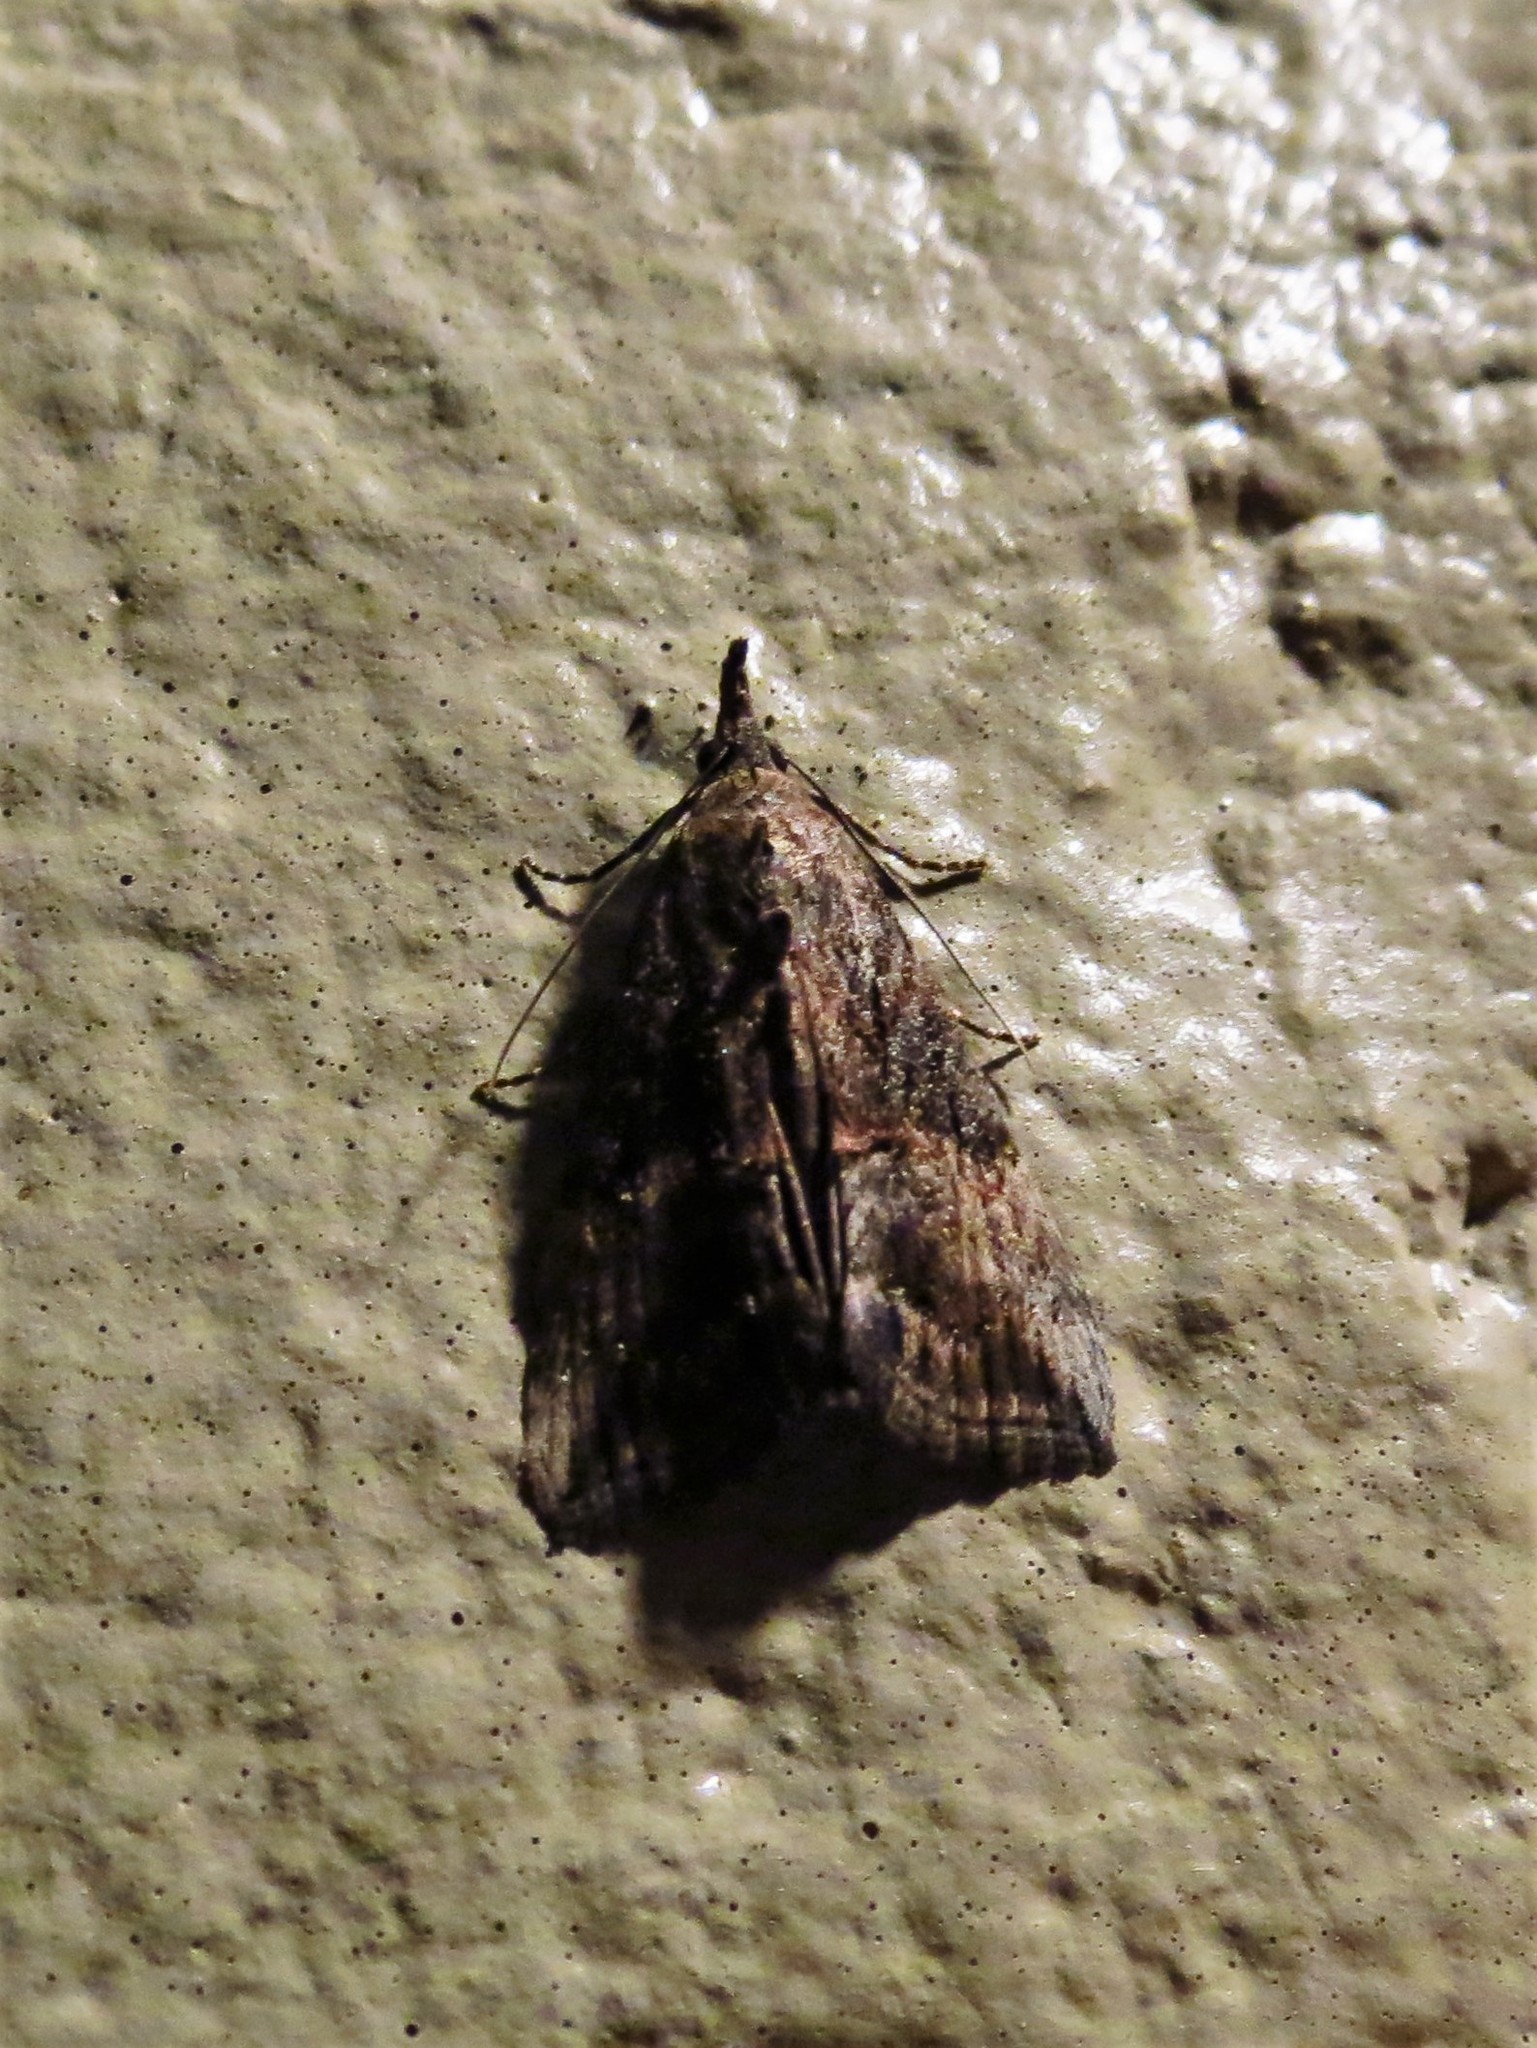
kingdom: Animalia
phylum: Arthropoda
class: Insecta
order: Lepidoptera
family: Erebidae
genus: Hypena
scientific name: Hypena scabra
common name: Green cloverworm
